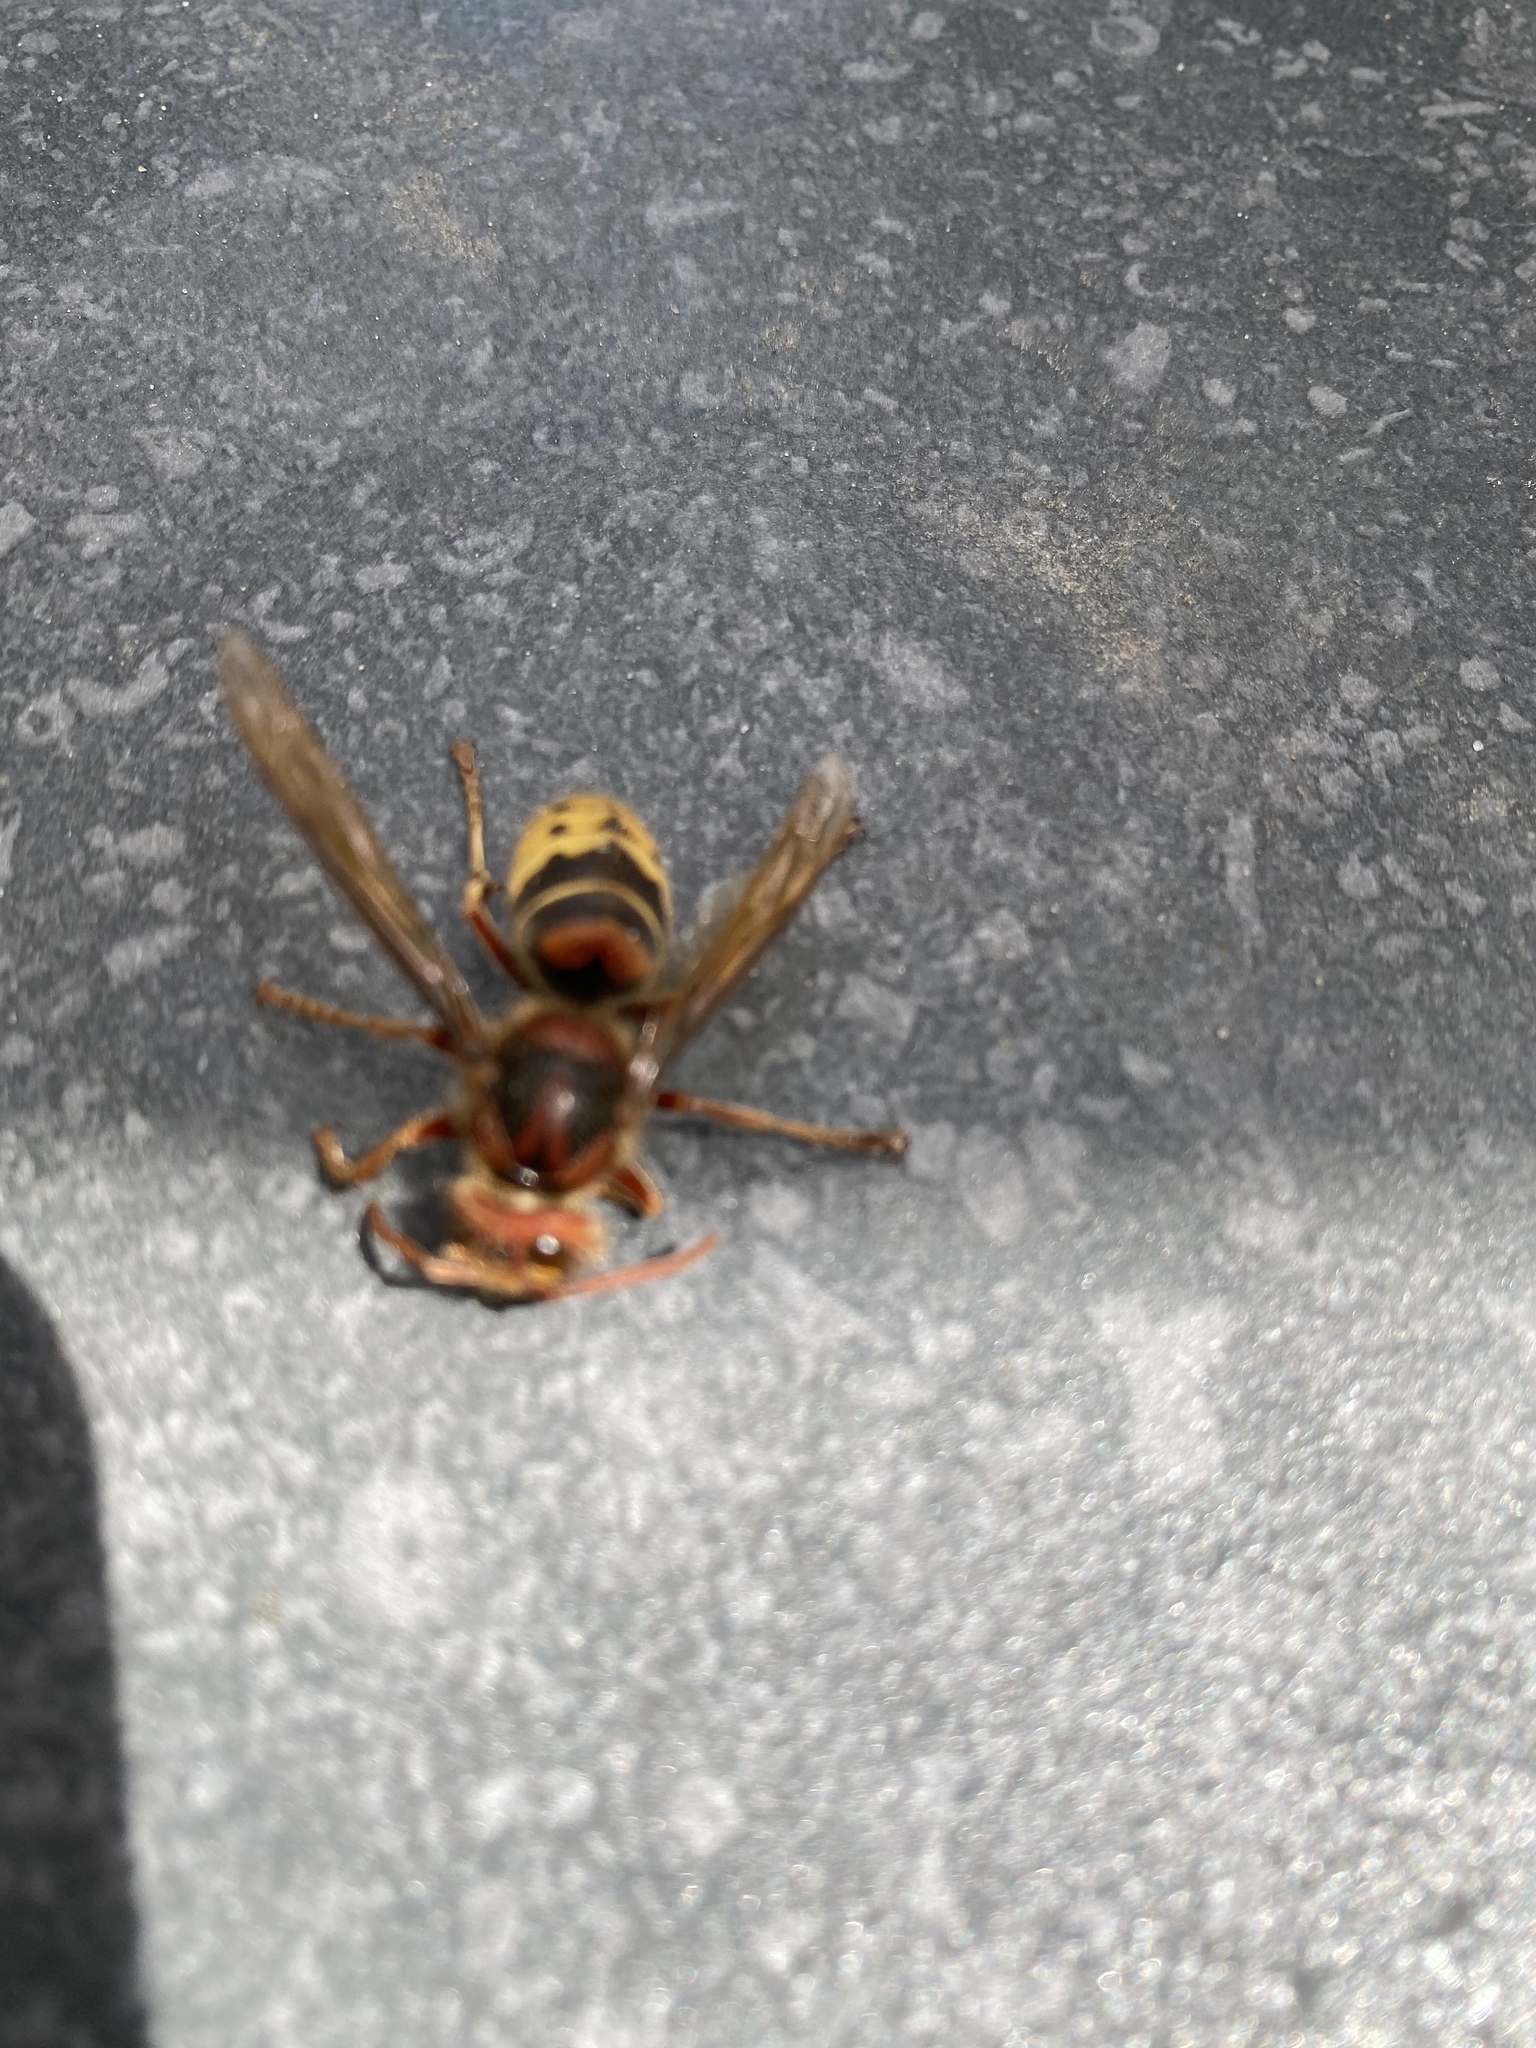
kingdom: Animalia
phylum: Arthropoda
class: Insecta
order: Hymenoptera
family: Vespidae
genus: Vespa
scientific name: Vespa crabro
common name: Hornet
